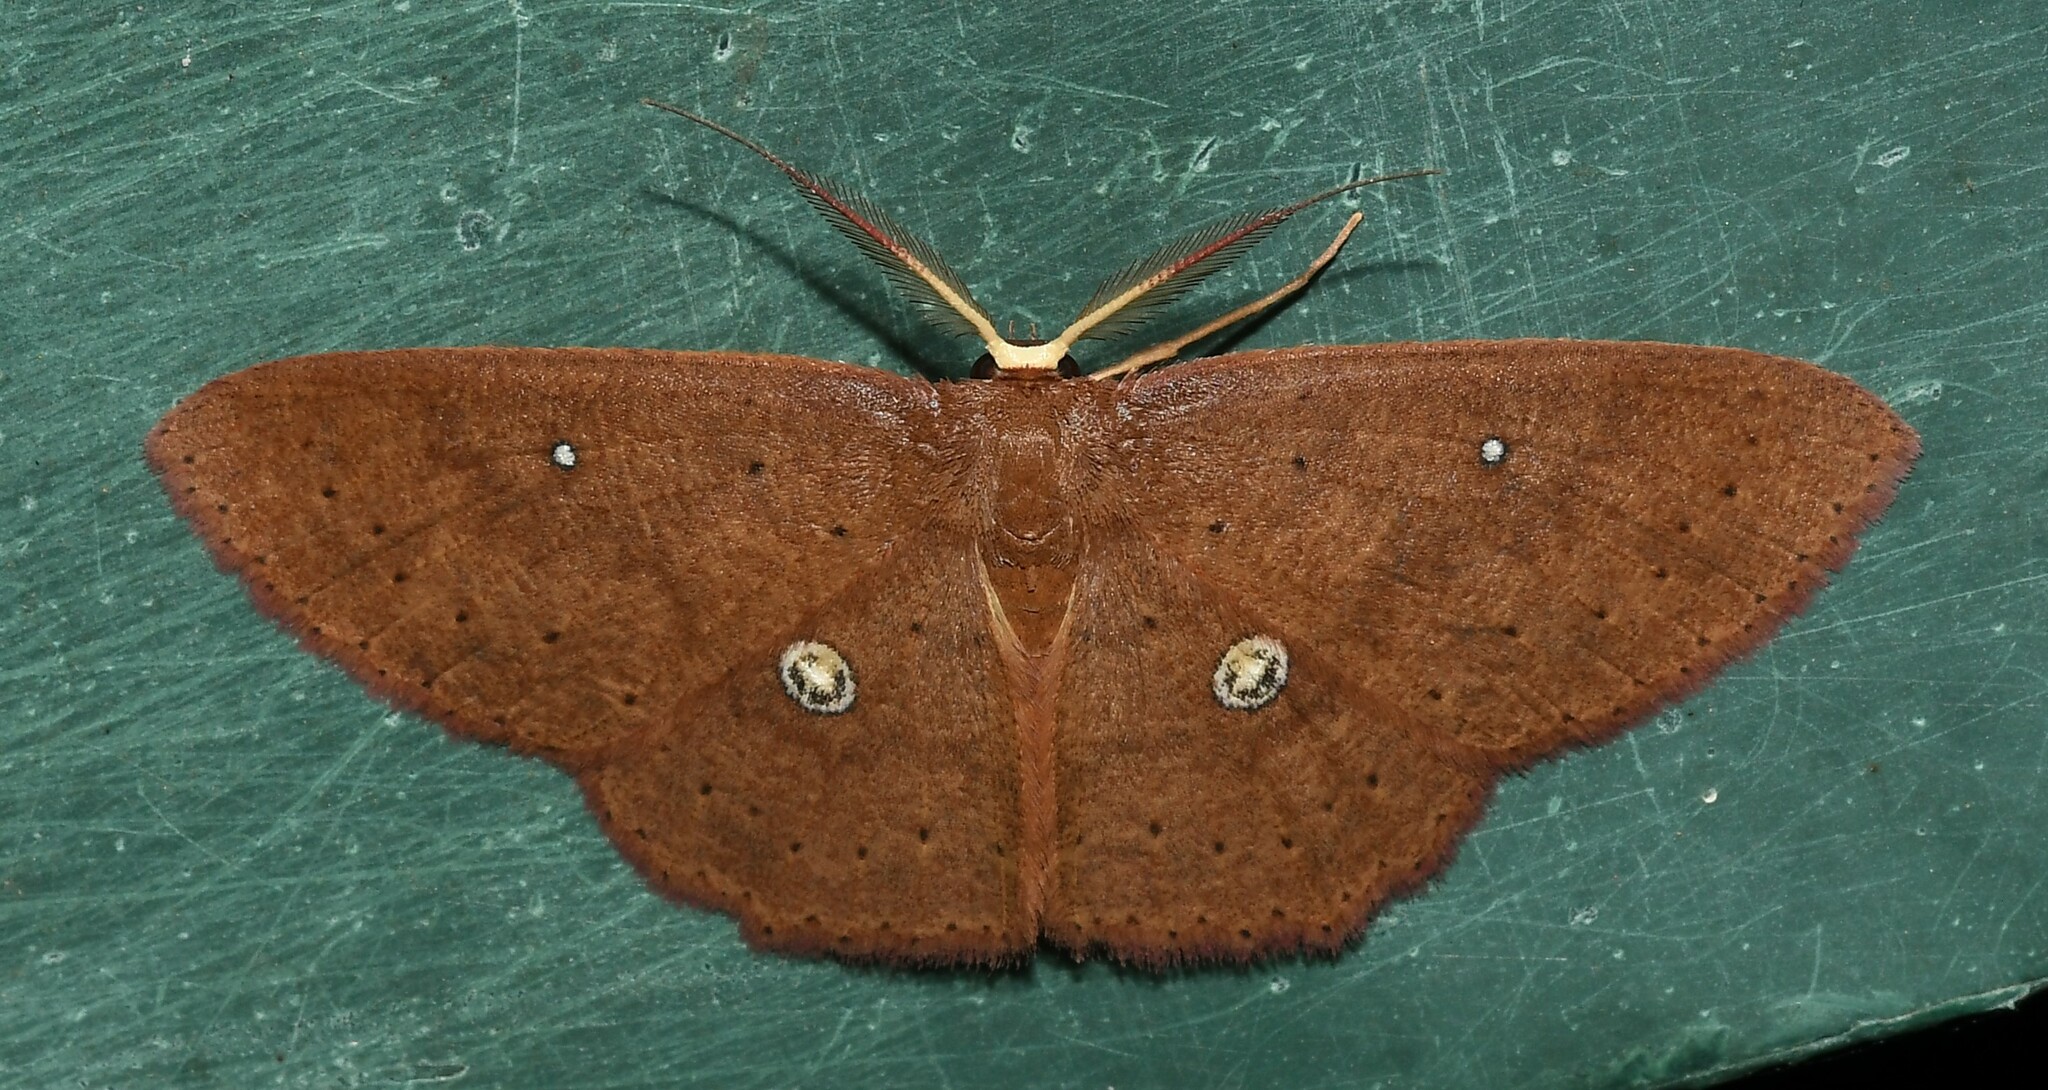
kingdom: Animalia
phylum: Arthropoda
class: Insecta
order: Lepidoptera
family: Geometridae
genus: Cyclophora
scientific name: Cyclophora
